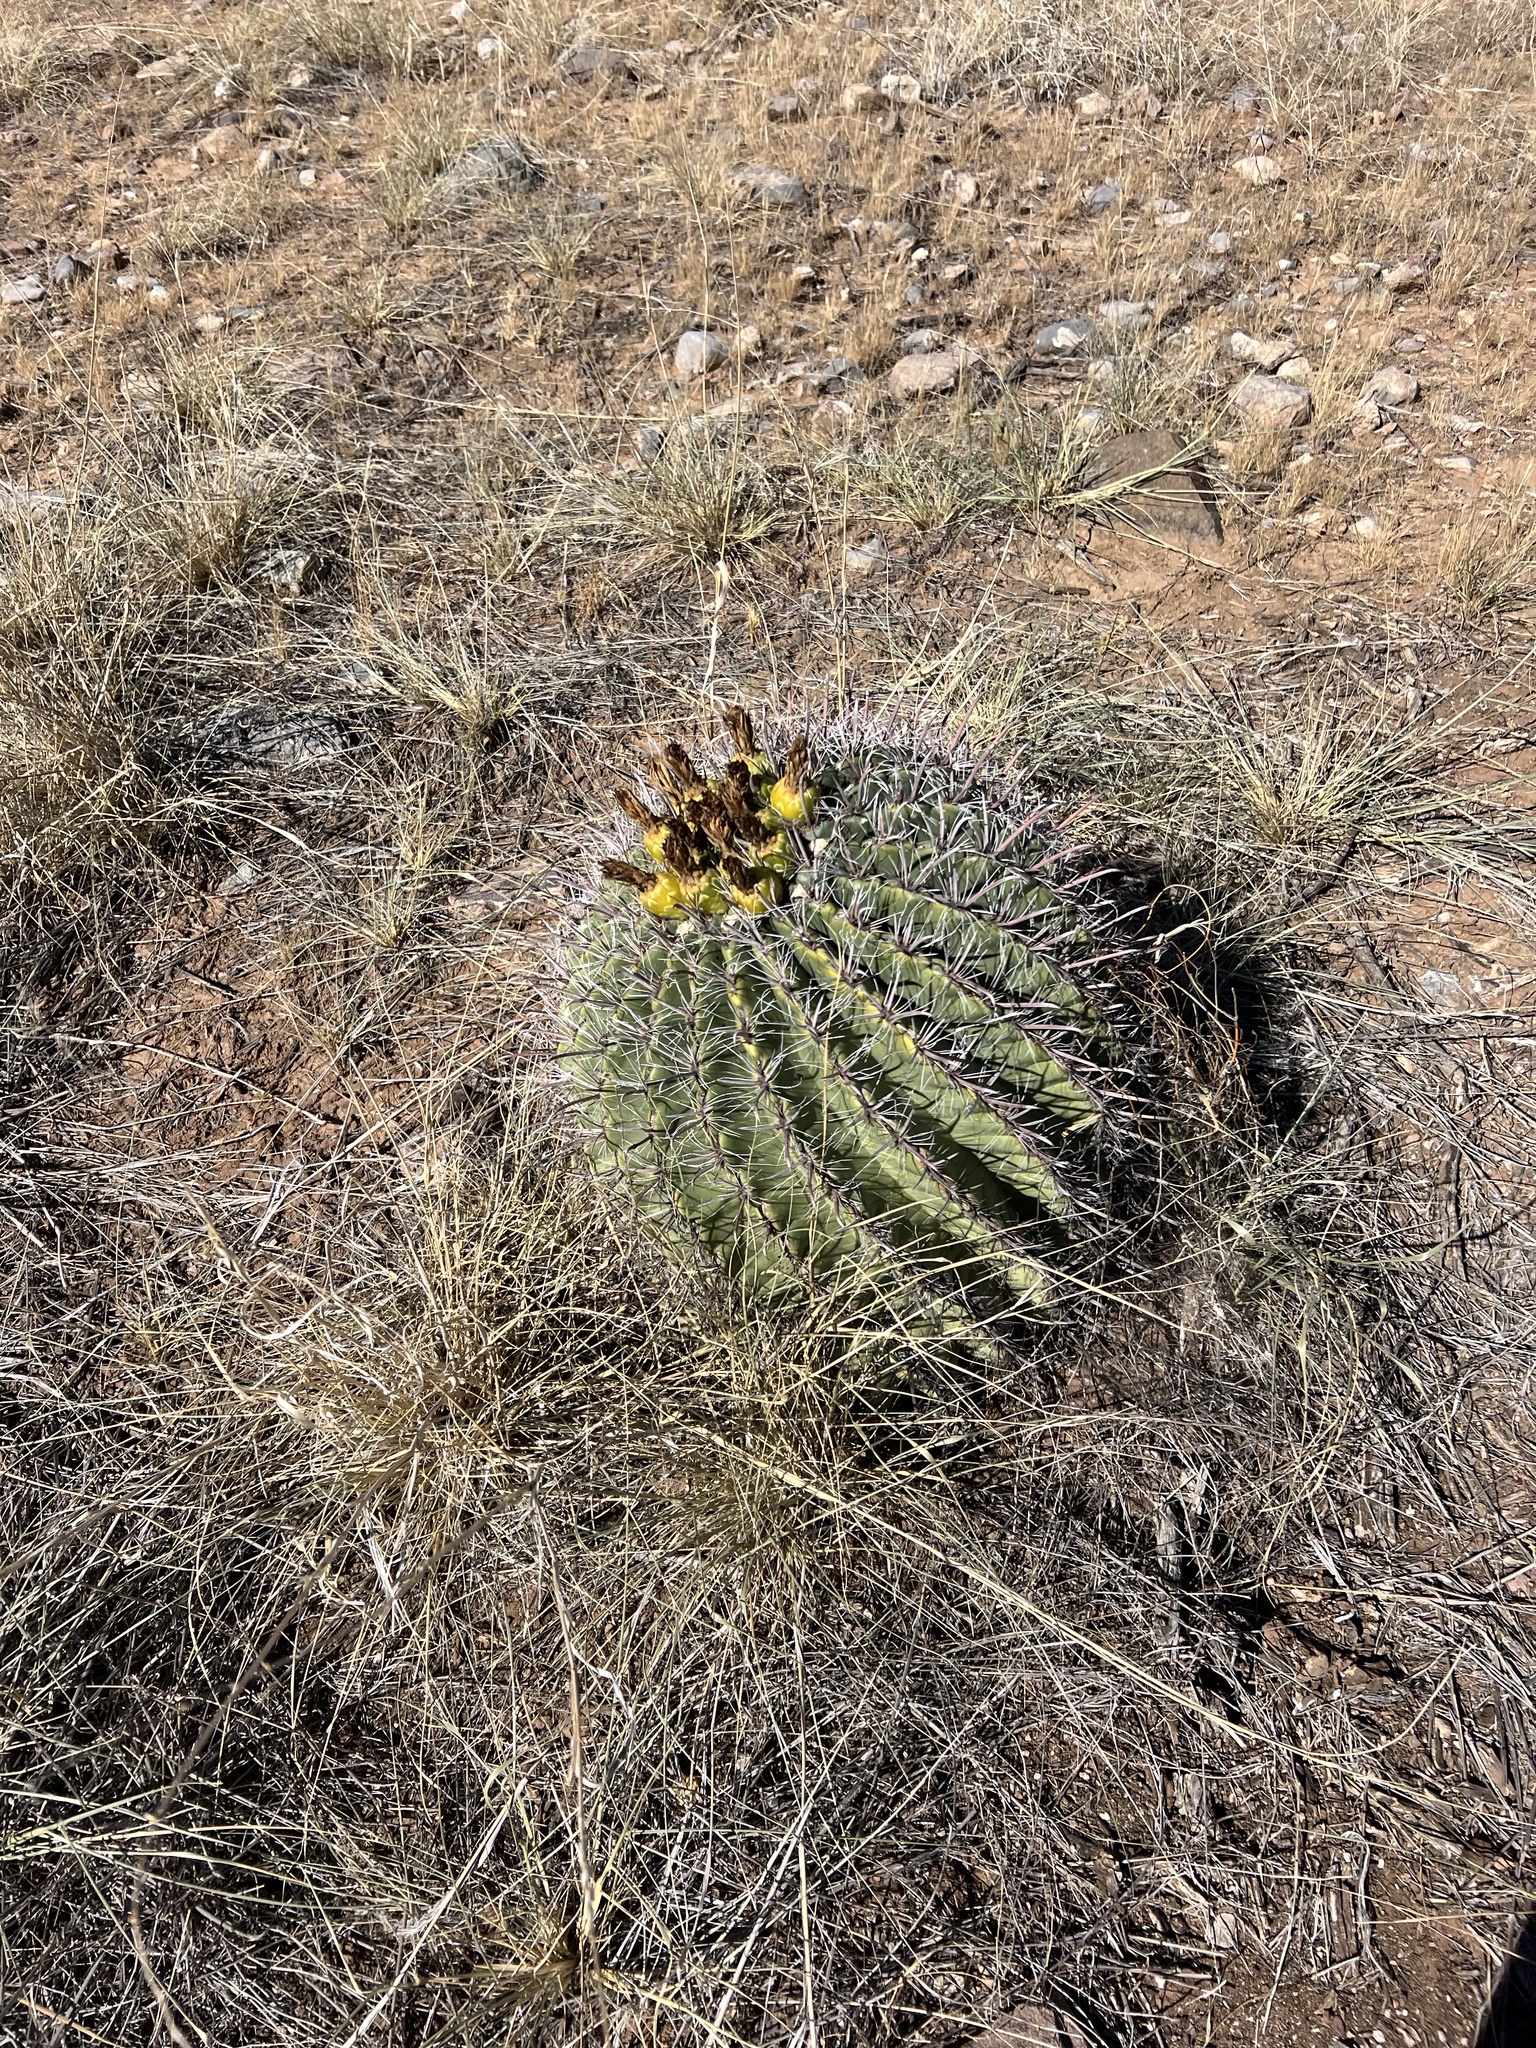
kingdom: Plantae
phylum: Tracheophyta
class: Magnoliopsida
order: Caryophyllales
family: Cactaceae
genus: Ferocactus
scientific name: Ferocactus wislizeni
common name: Candy barrel cactus
